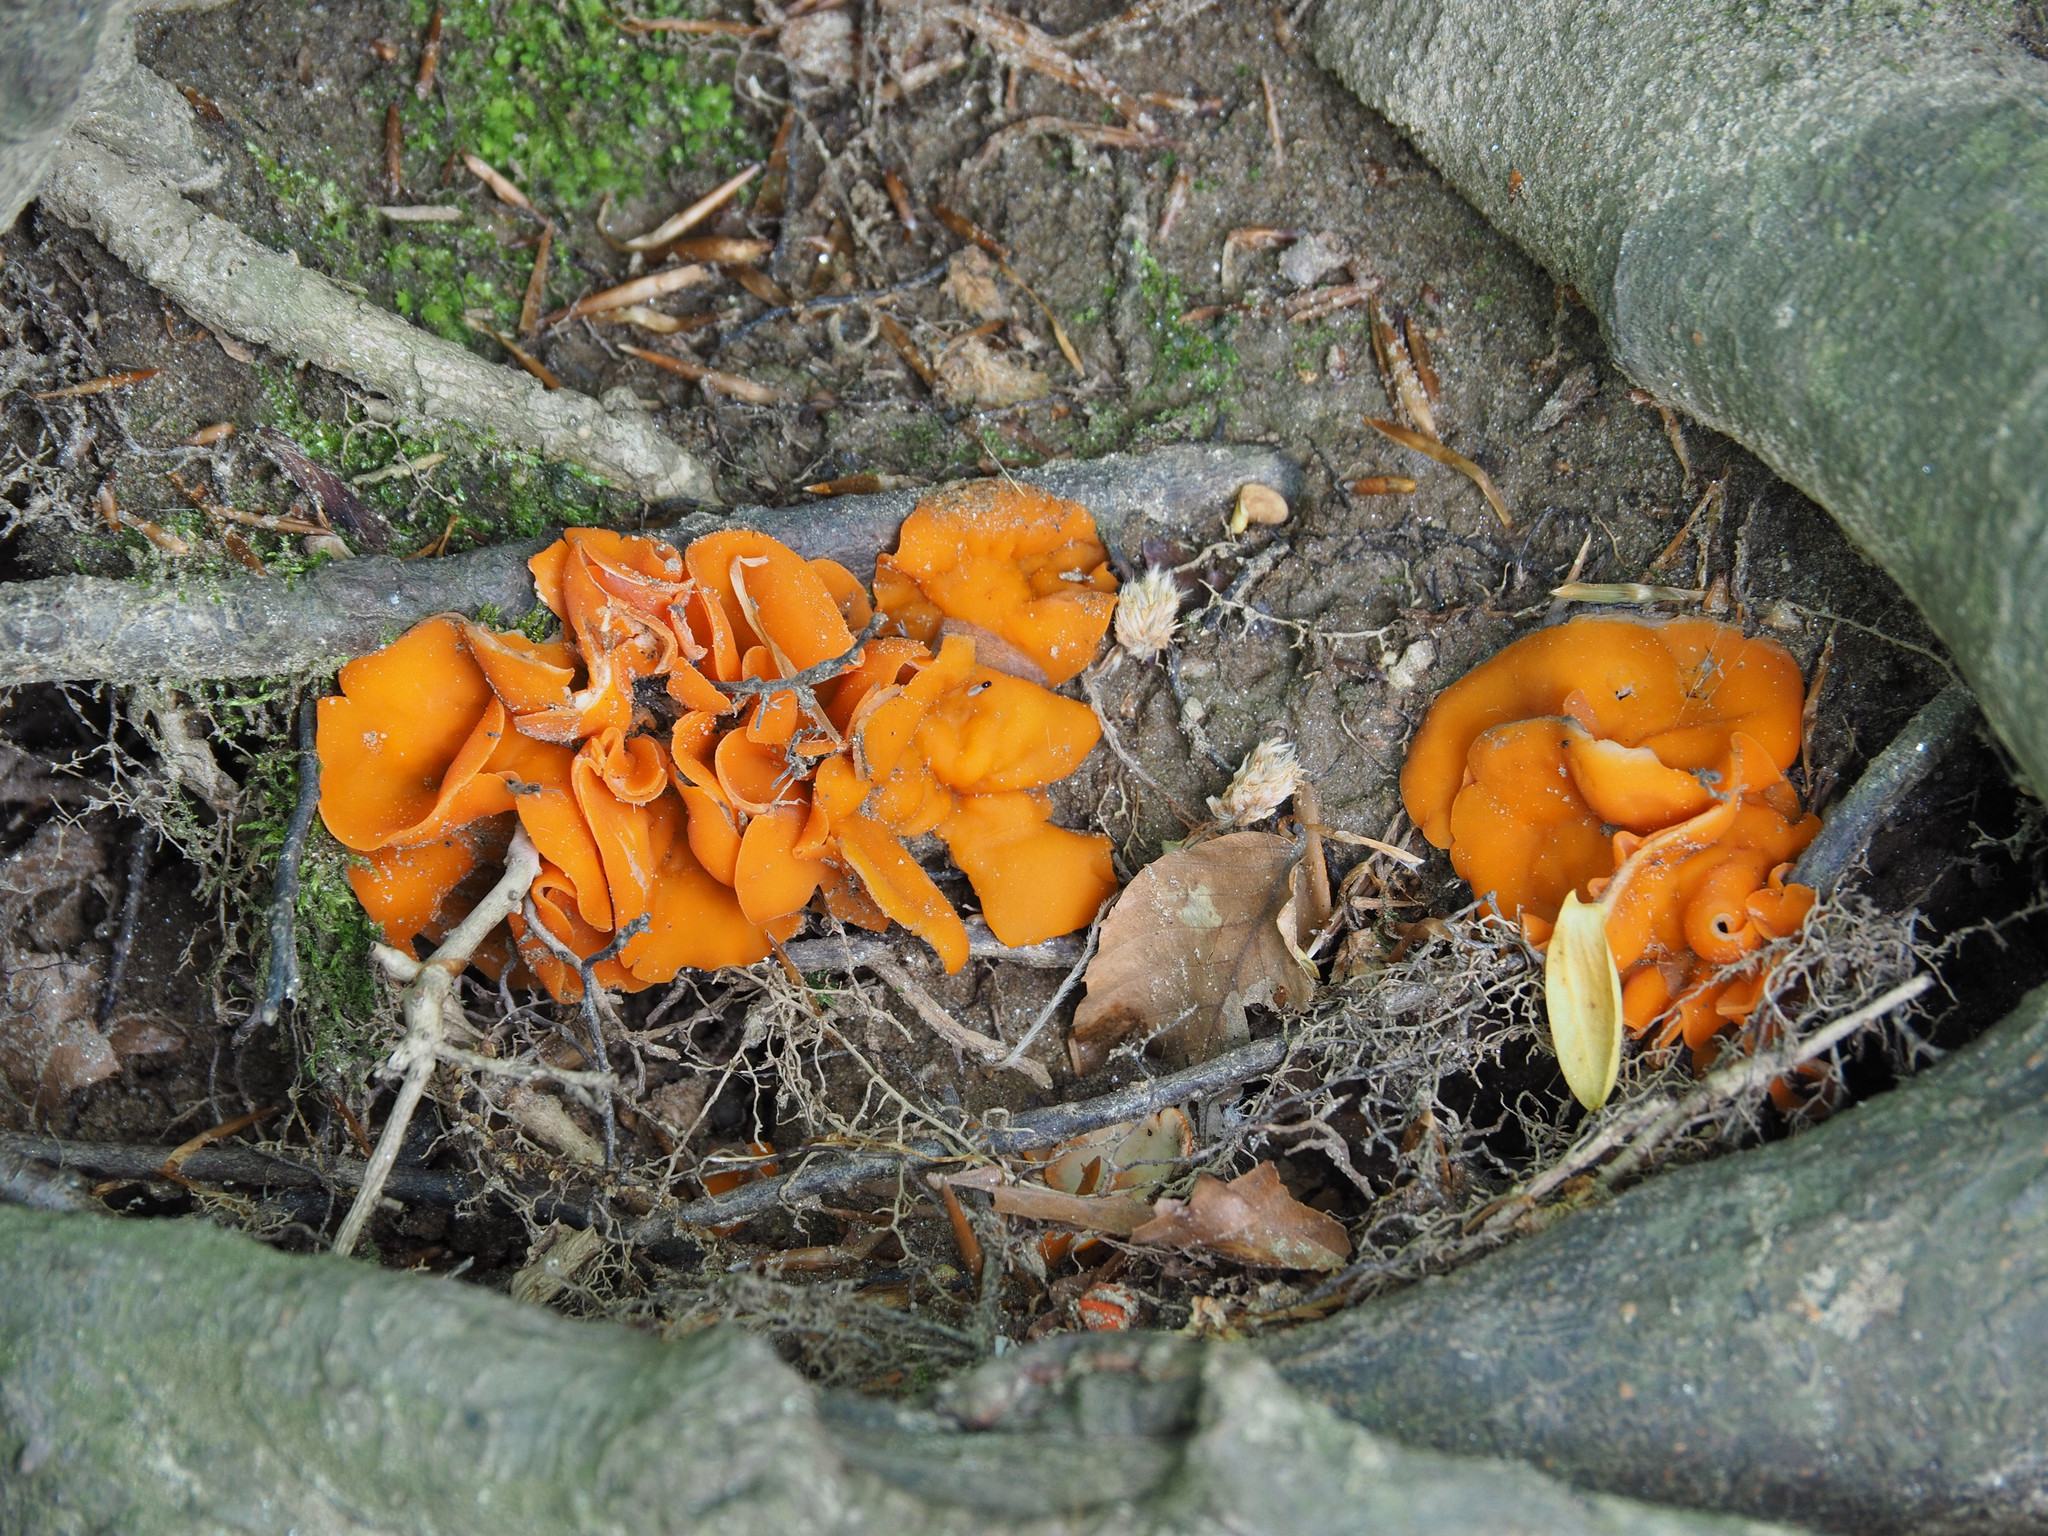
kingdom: Fungi
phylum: Ascomycota
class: Pezizomycetes
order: Pezizales
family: Pyronemataceae
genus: Aleuria
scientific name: Aleuria aurantia
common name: Orange peel fungus
